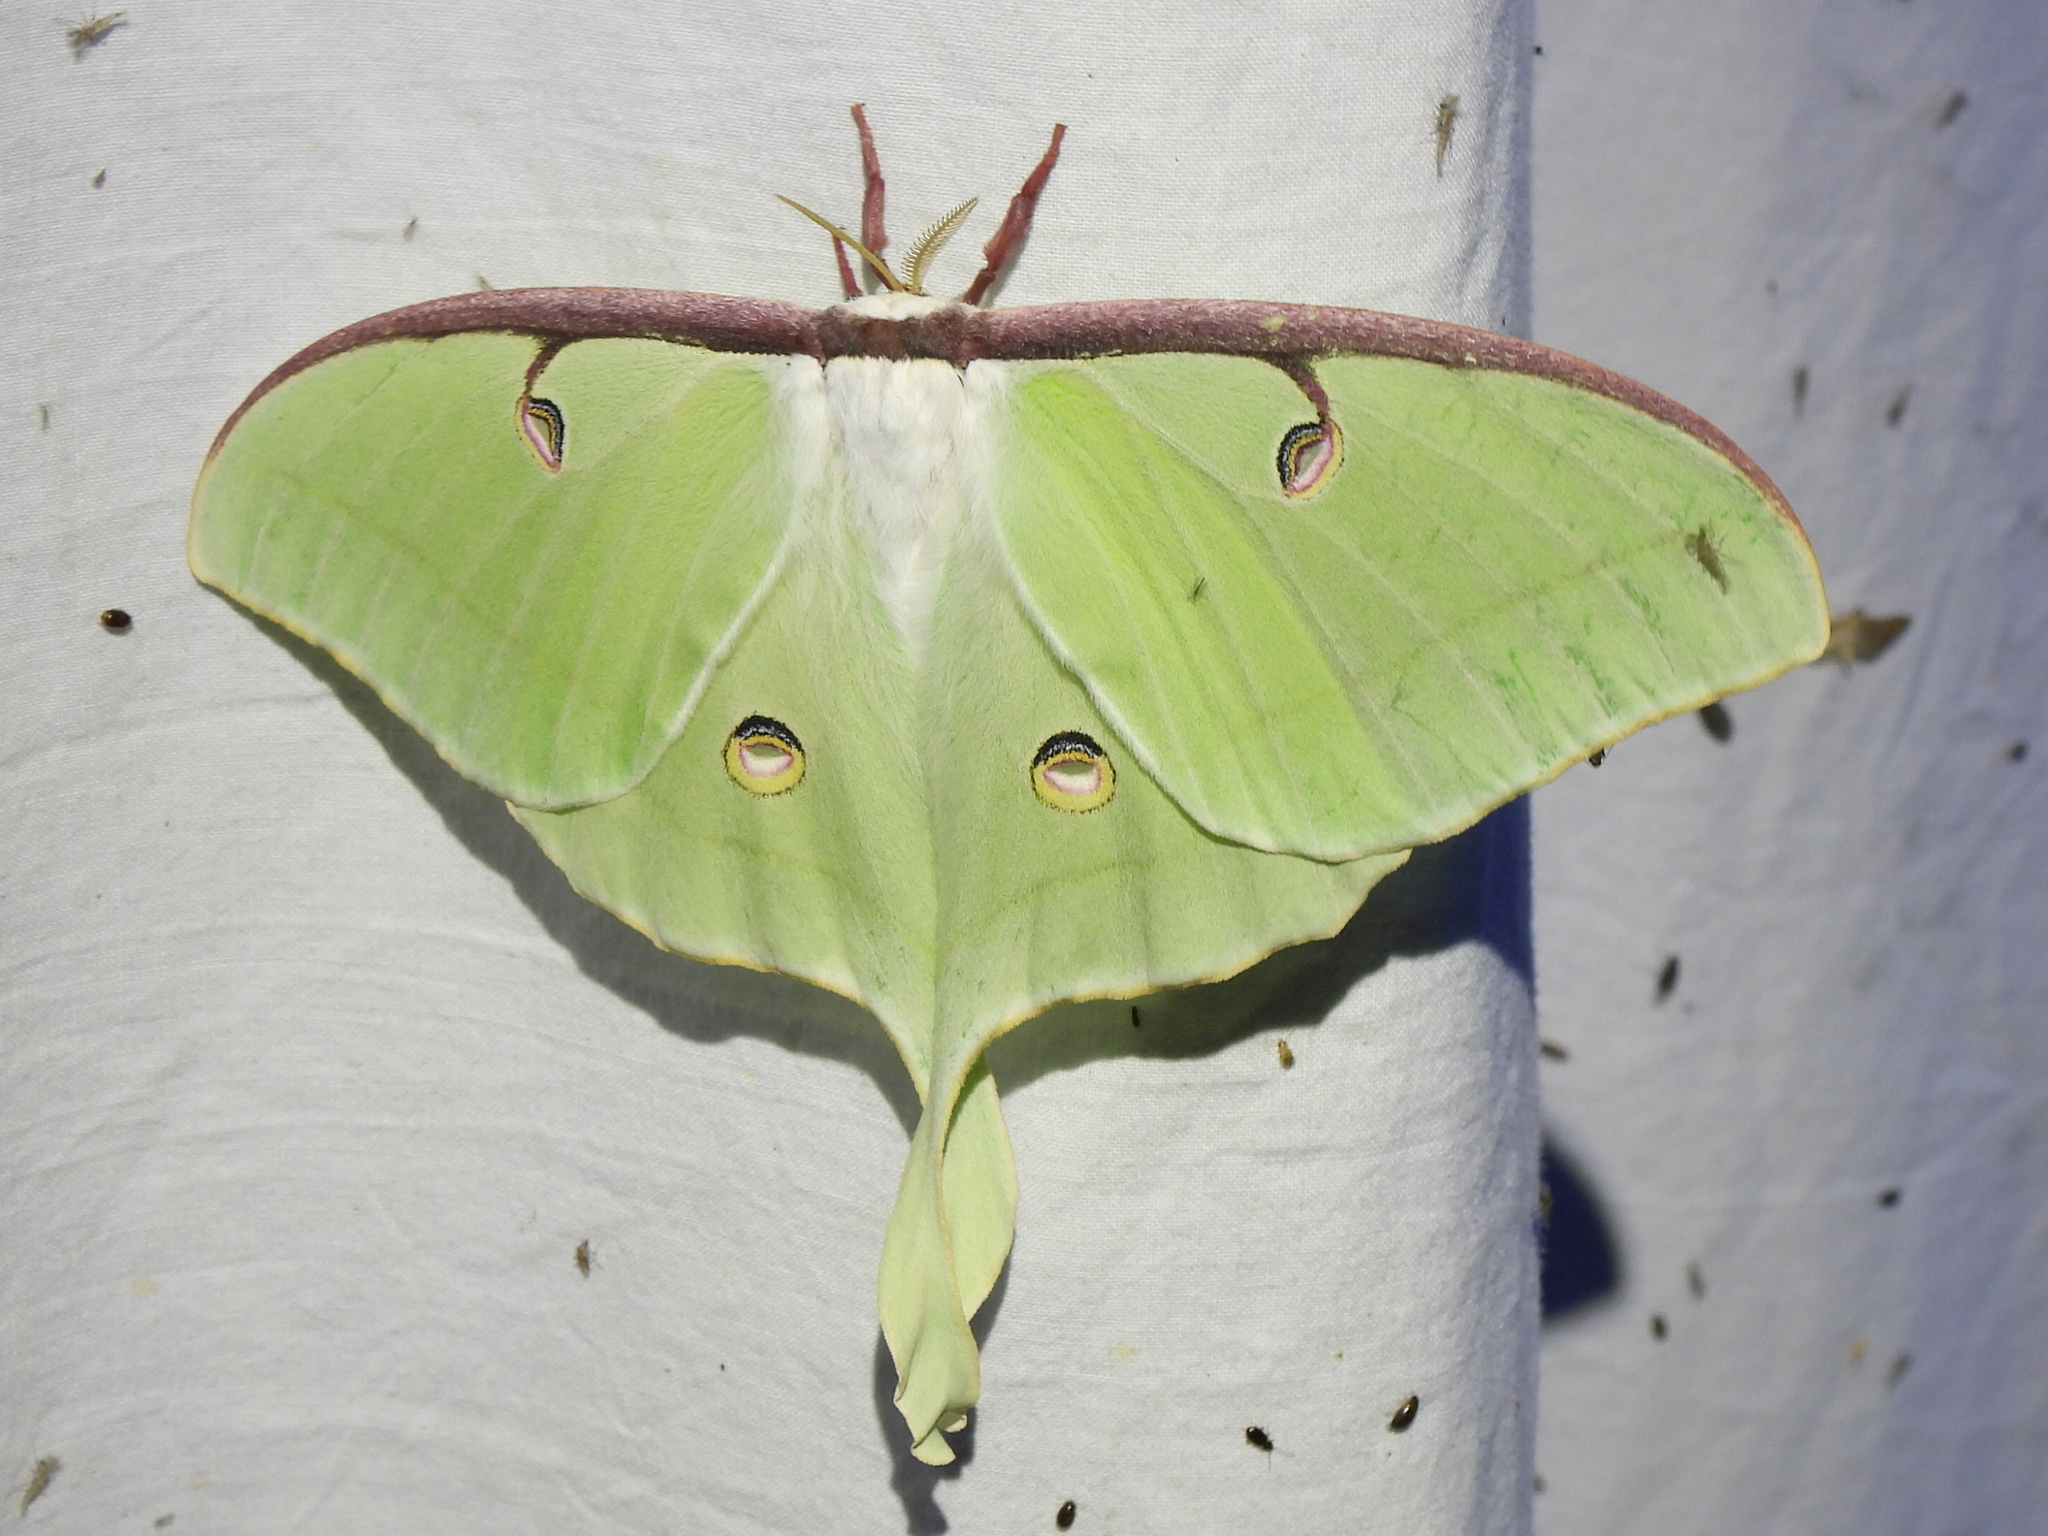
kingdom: Animalia
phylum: Arthropoda
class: Insecta
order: Lepidoptera
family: Saturniidae
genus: Actias
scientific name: Actias luna
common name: Luna moth
